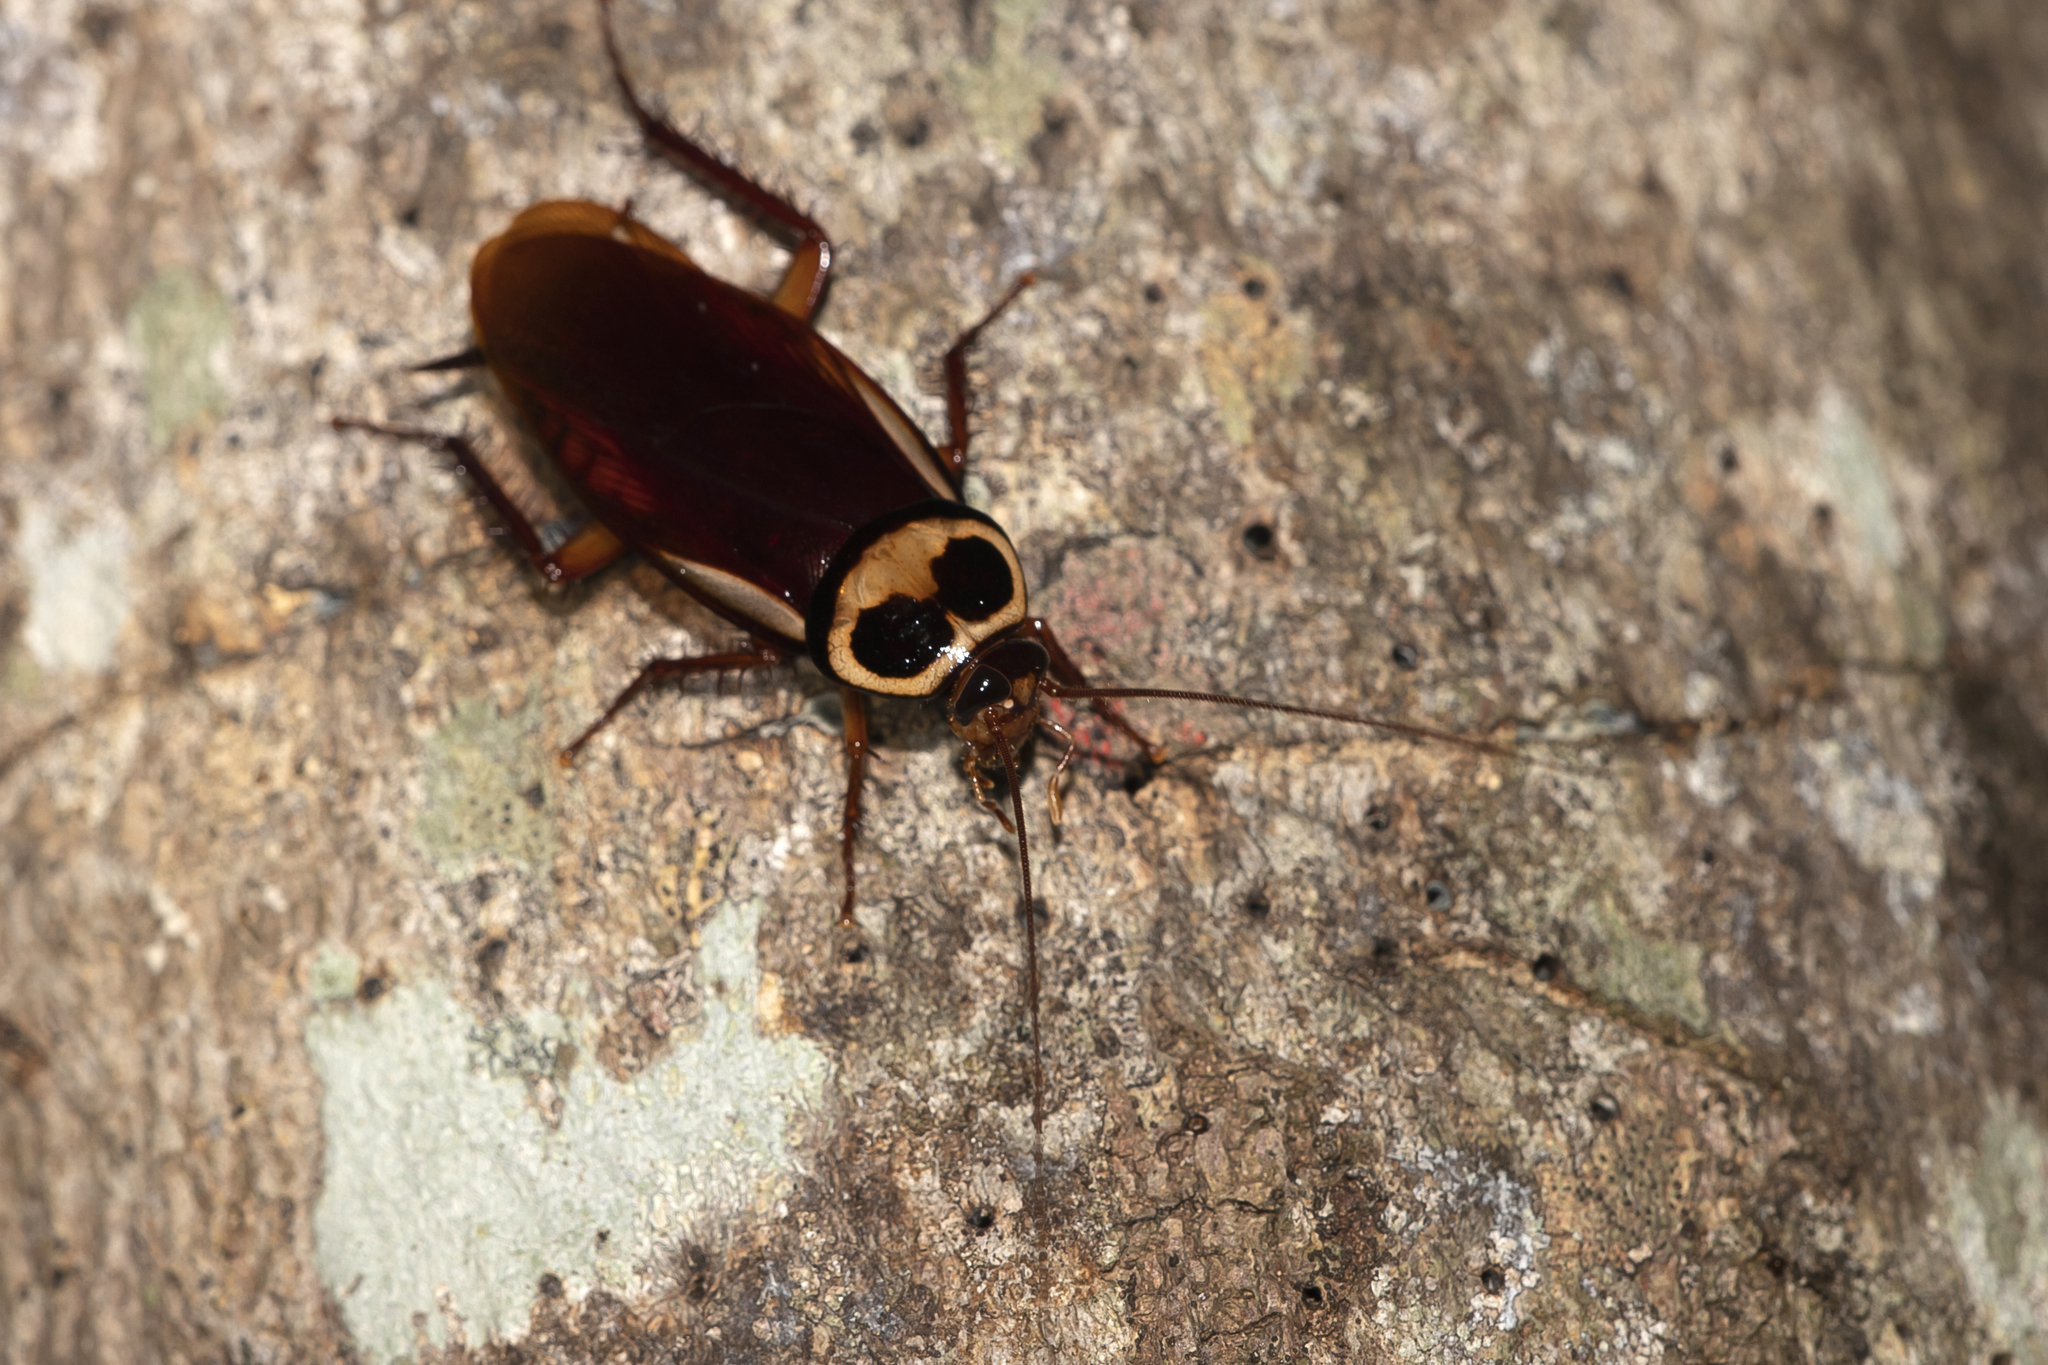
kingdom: Animalia
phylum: Arthropoda
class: Insecta
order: Blattodea
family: Blattidae
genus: Periplaneta
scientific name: Periplaneta australasiae
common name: Australian cockroach
